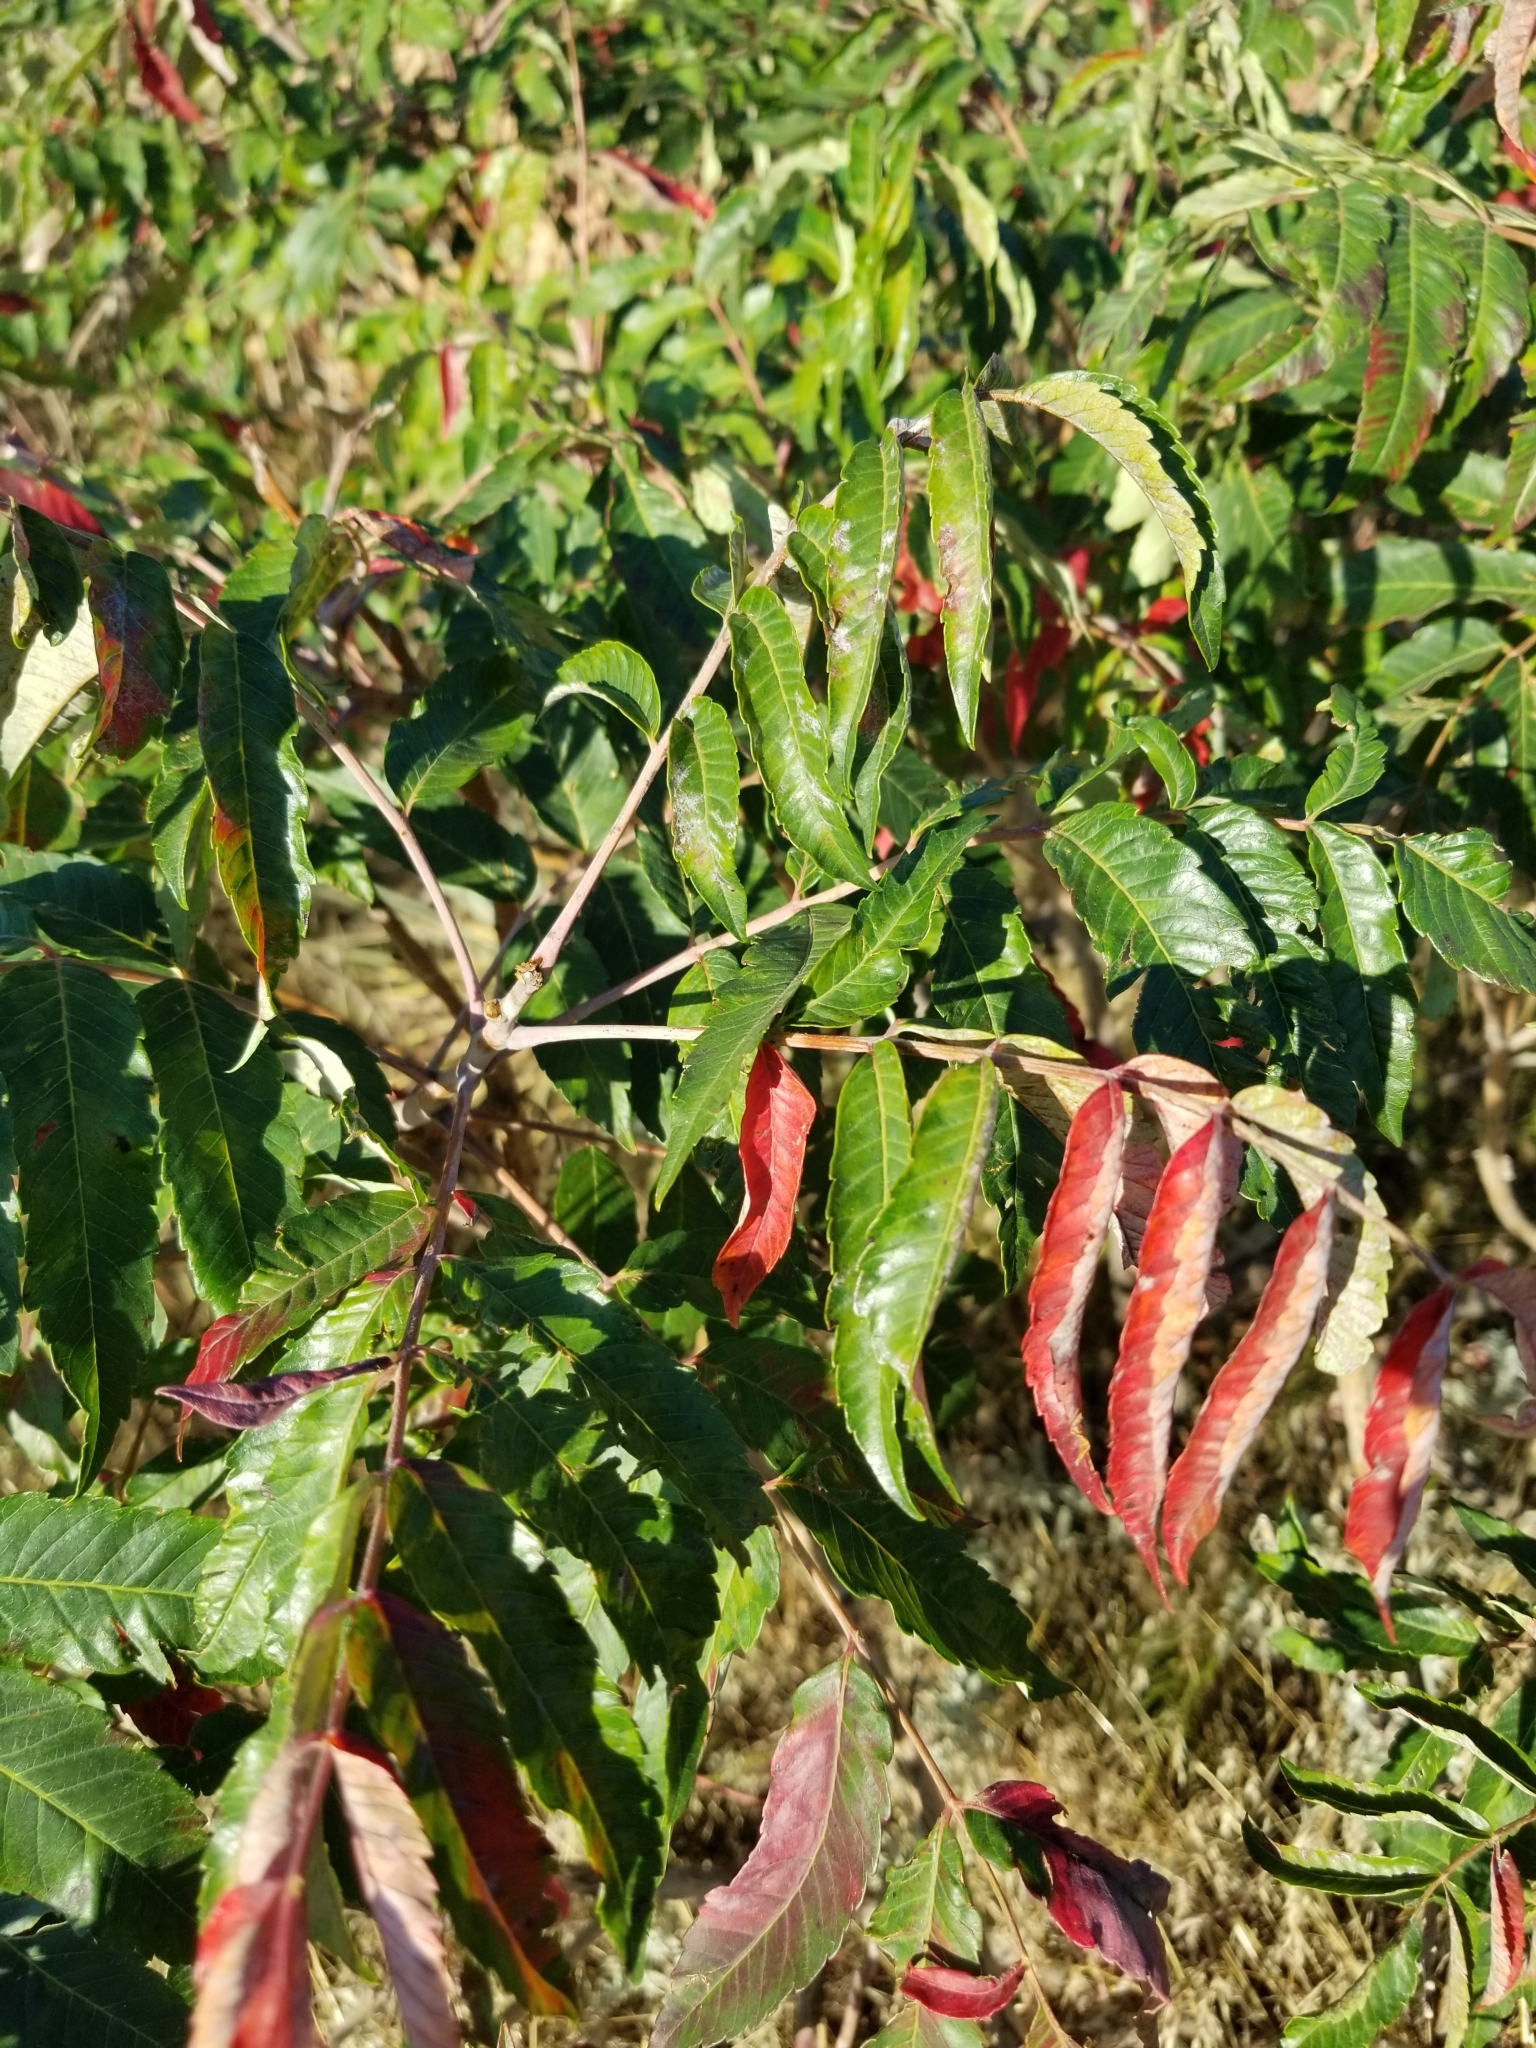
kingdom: Plantae
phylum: Tracheophyta
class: Magnoliopsida
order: Sapindales
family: Anacardiaceae
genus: Rhus
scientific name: Rhus glabra
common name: Scarlet sumac
